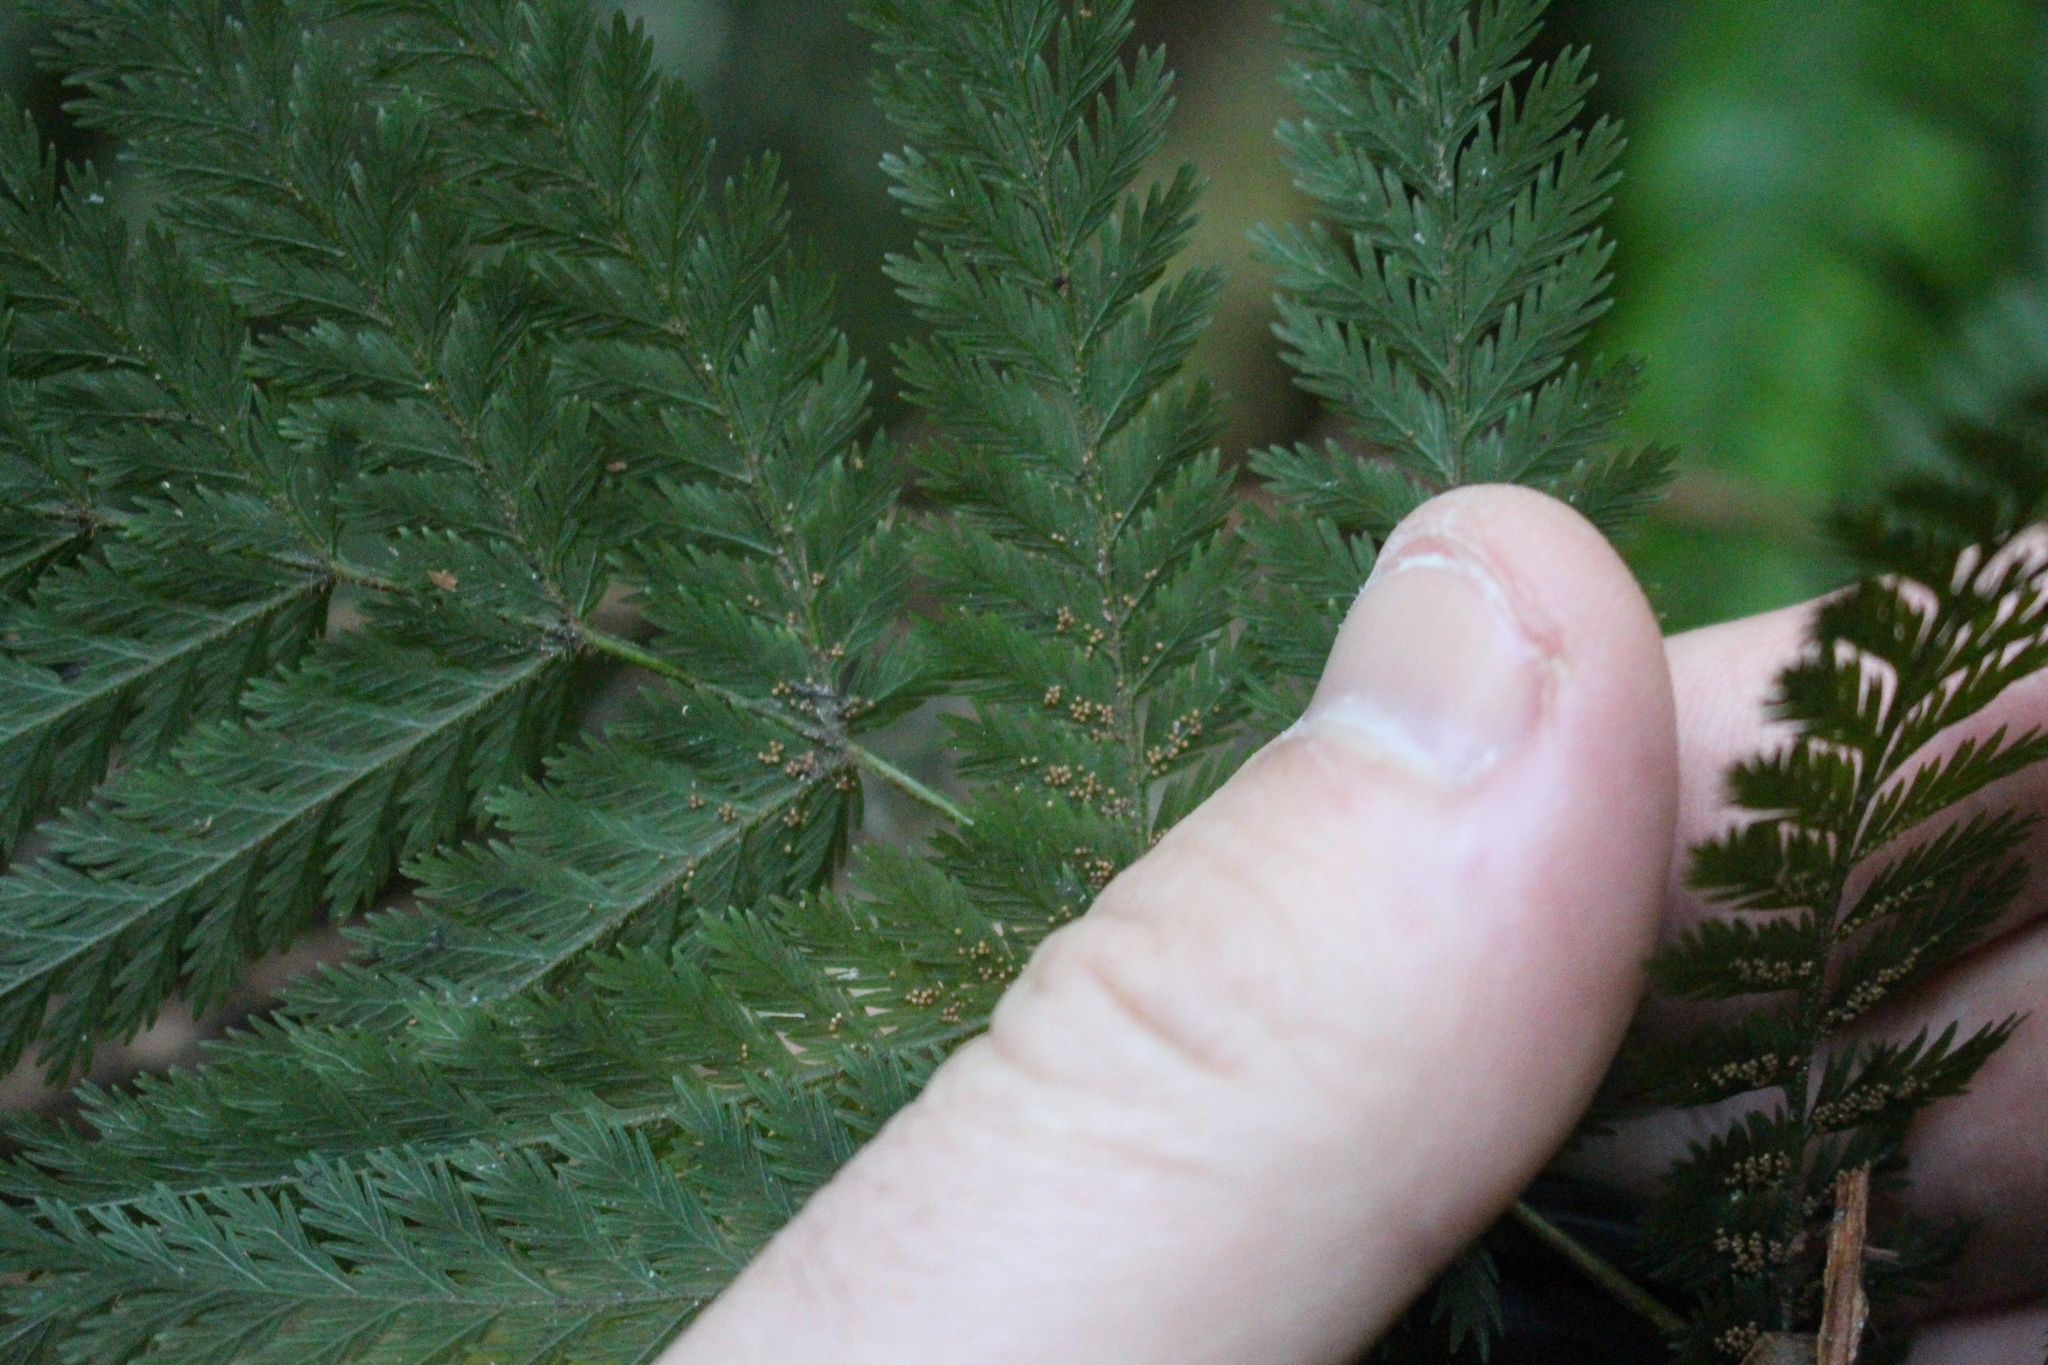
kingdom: Plantae
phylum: Tracheophyta
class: Polypodiopsida
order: Osmundales
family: Osmundaceae
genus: Leptopteris
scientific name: Leptopteris hymenophylloides
